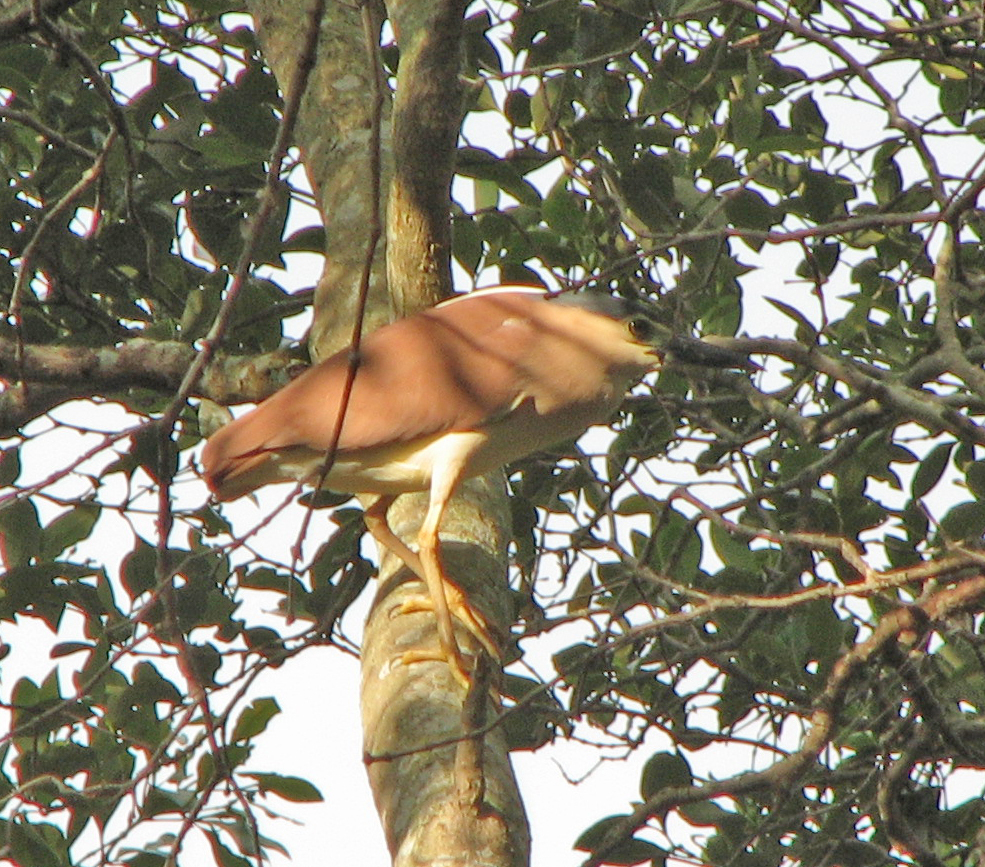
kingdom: Animalia
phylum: Chordata
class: Aves
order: Pelecaniformes
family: Ardeidae
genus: Nycticorax
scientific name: Nycticorax caledonicus
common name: Rufous night-heron
